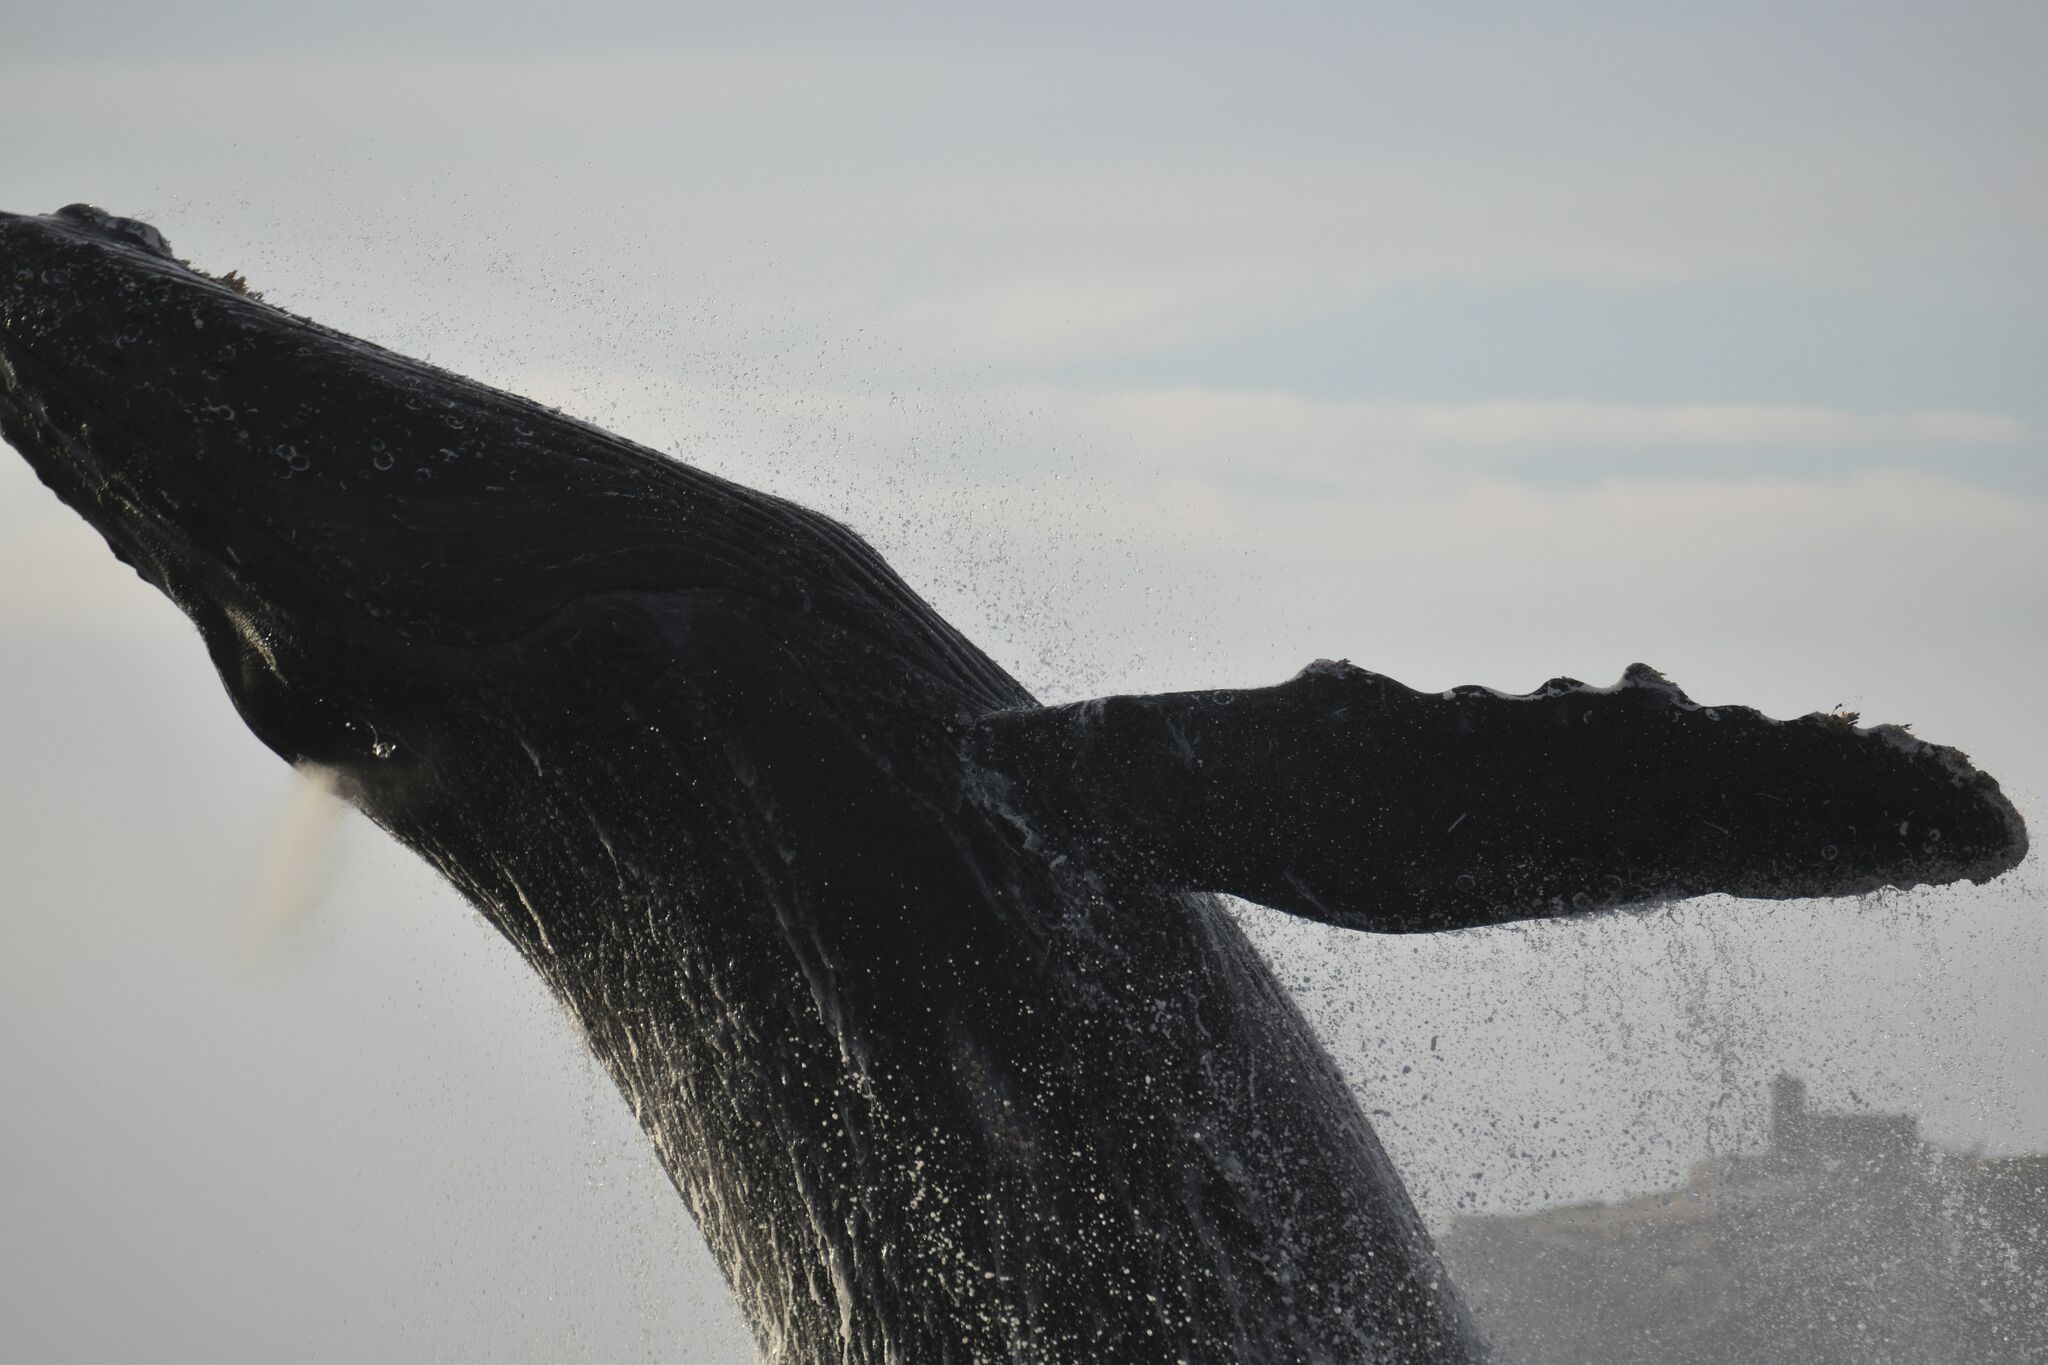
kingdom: Animalia
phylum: Chordata
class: Mammalia
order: Cetacea
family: Balaenopteridae
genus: Megaptera
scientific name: Megaptera novaeangliae
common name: Humpback whale
